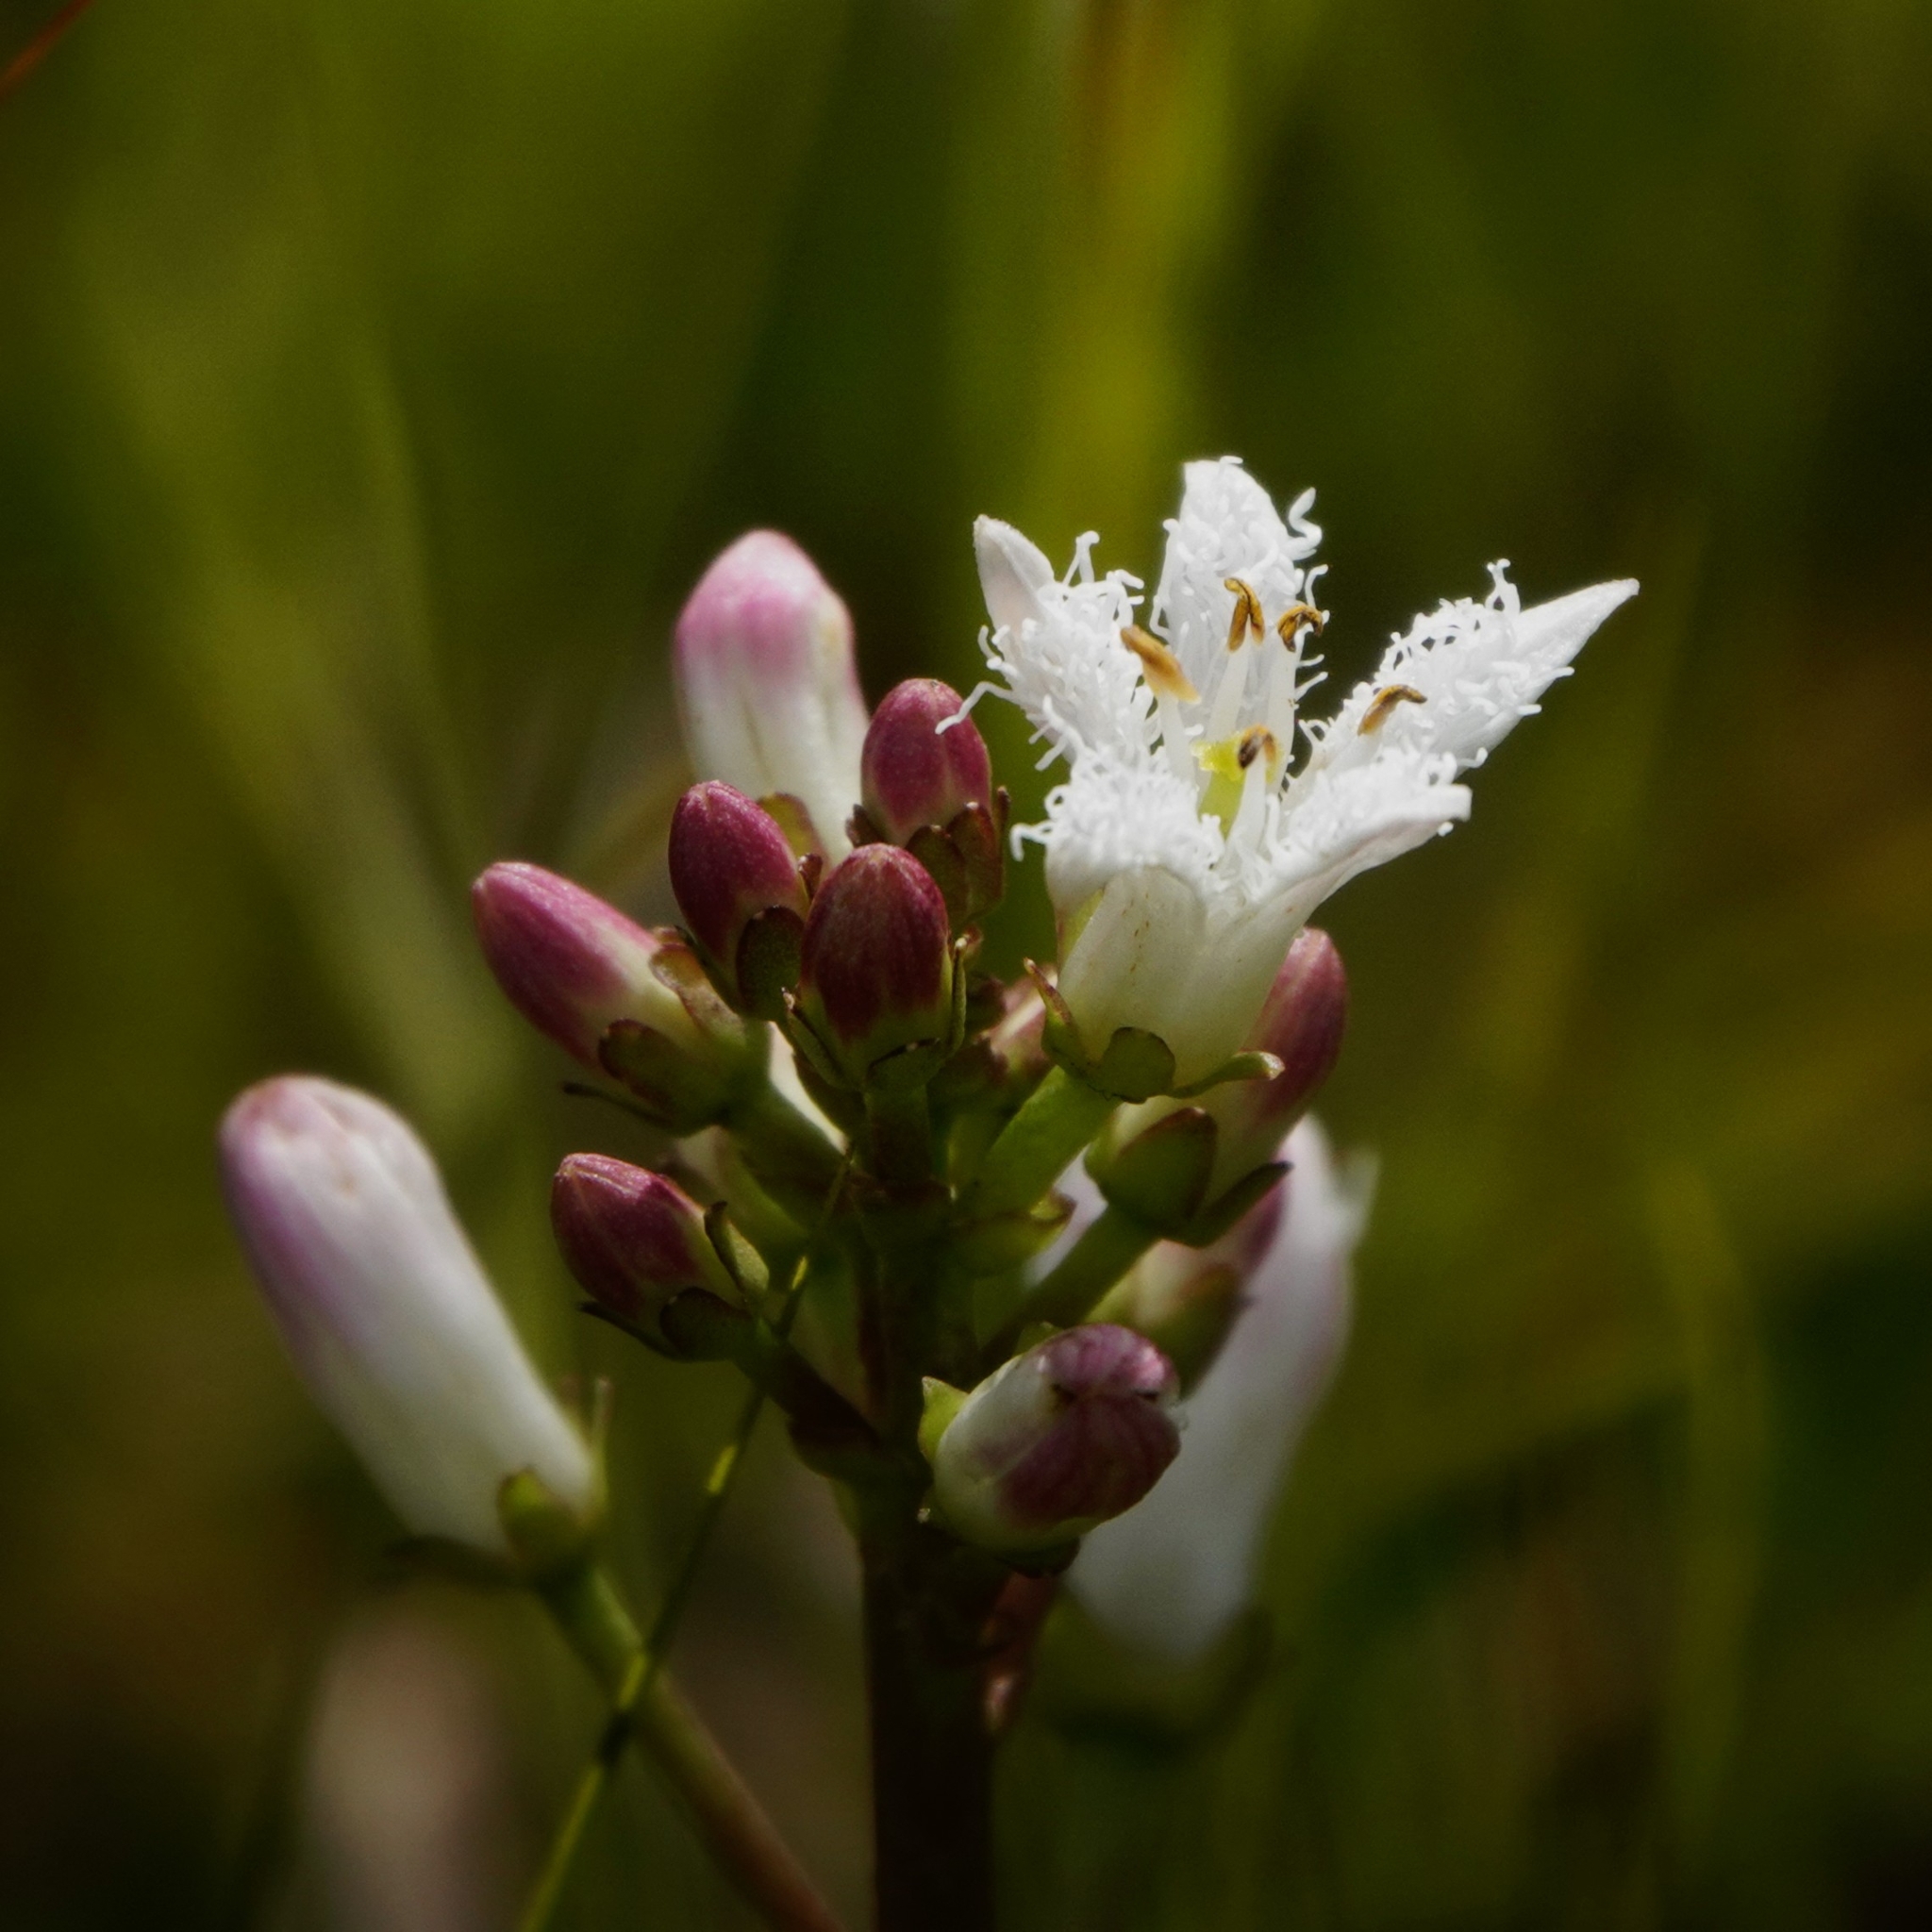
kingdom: Plantae
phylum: Tracheophyta
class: Magnoliopsida
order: Asterales
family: Menyanthaceae
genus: Menyanthes
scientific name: Menyanthes trifoliata
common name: Bogbean
